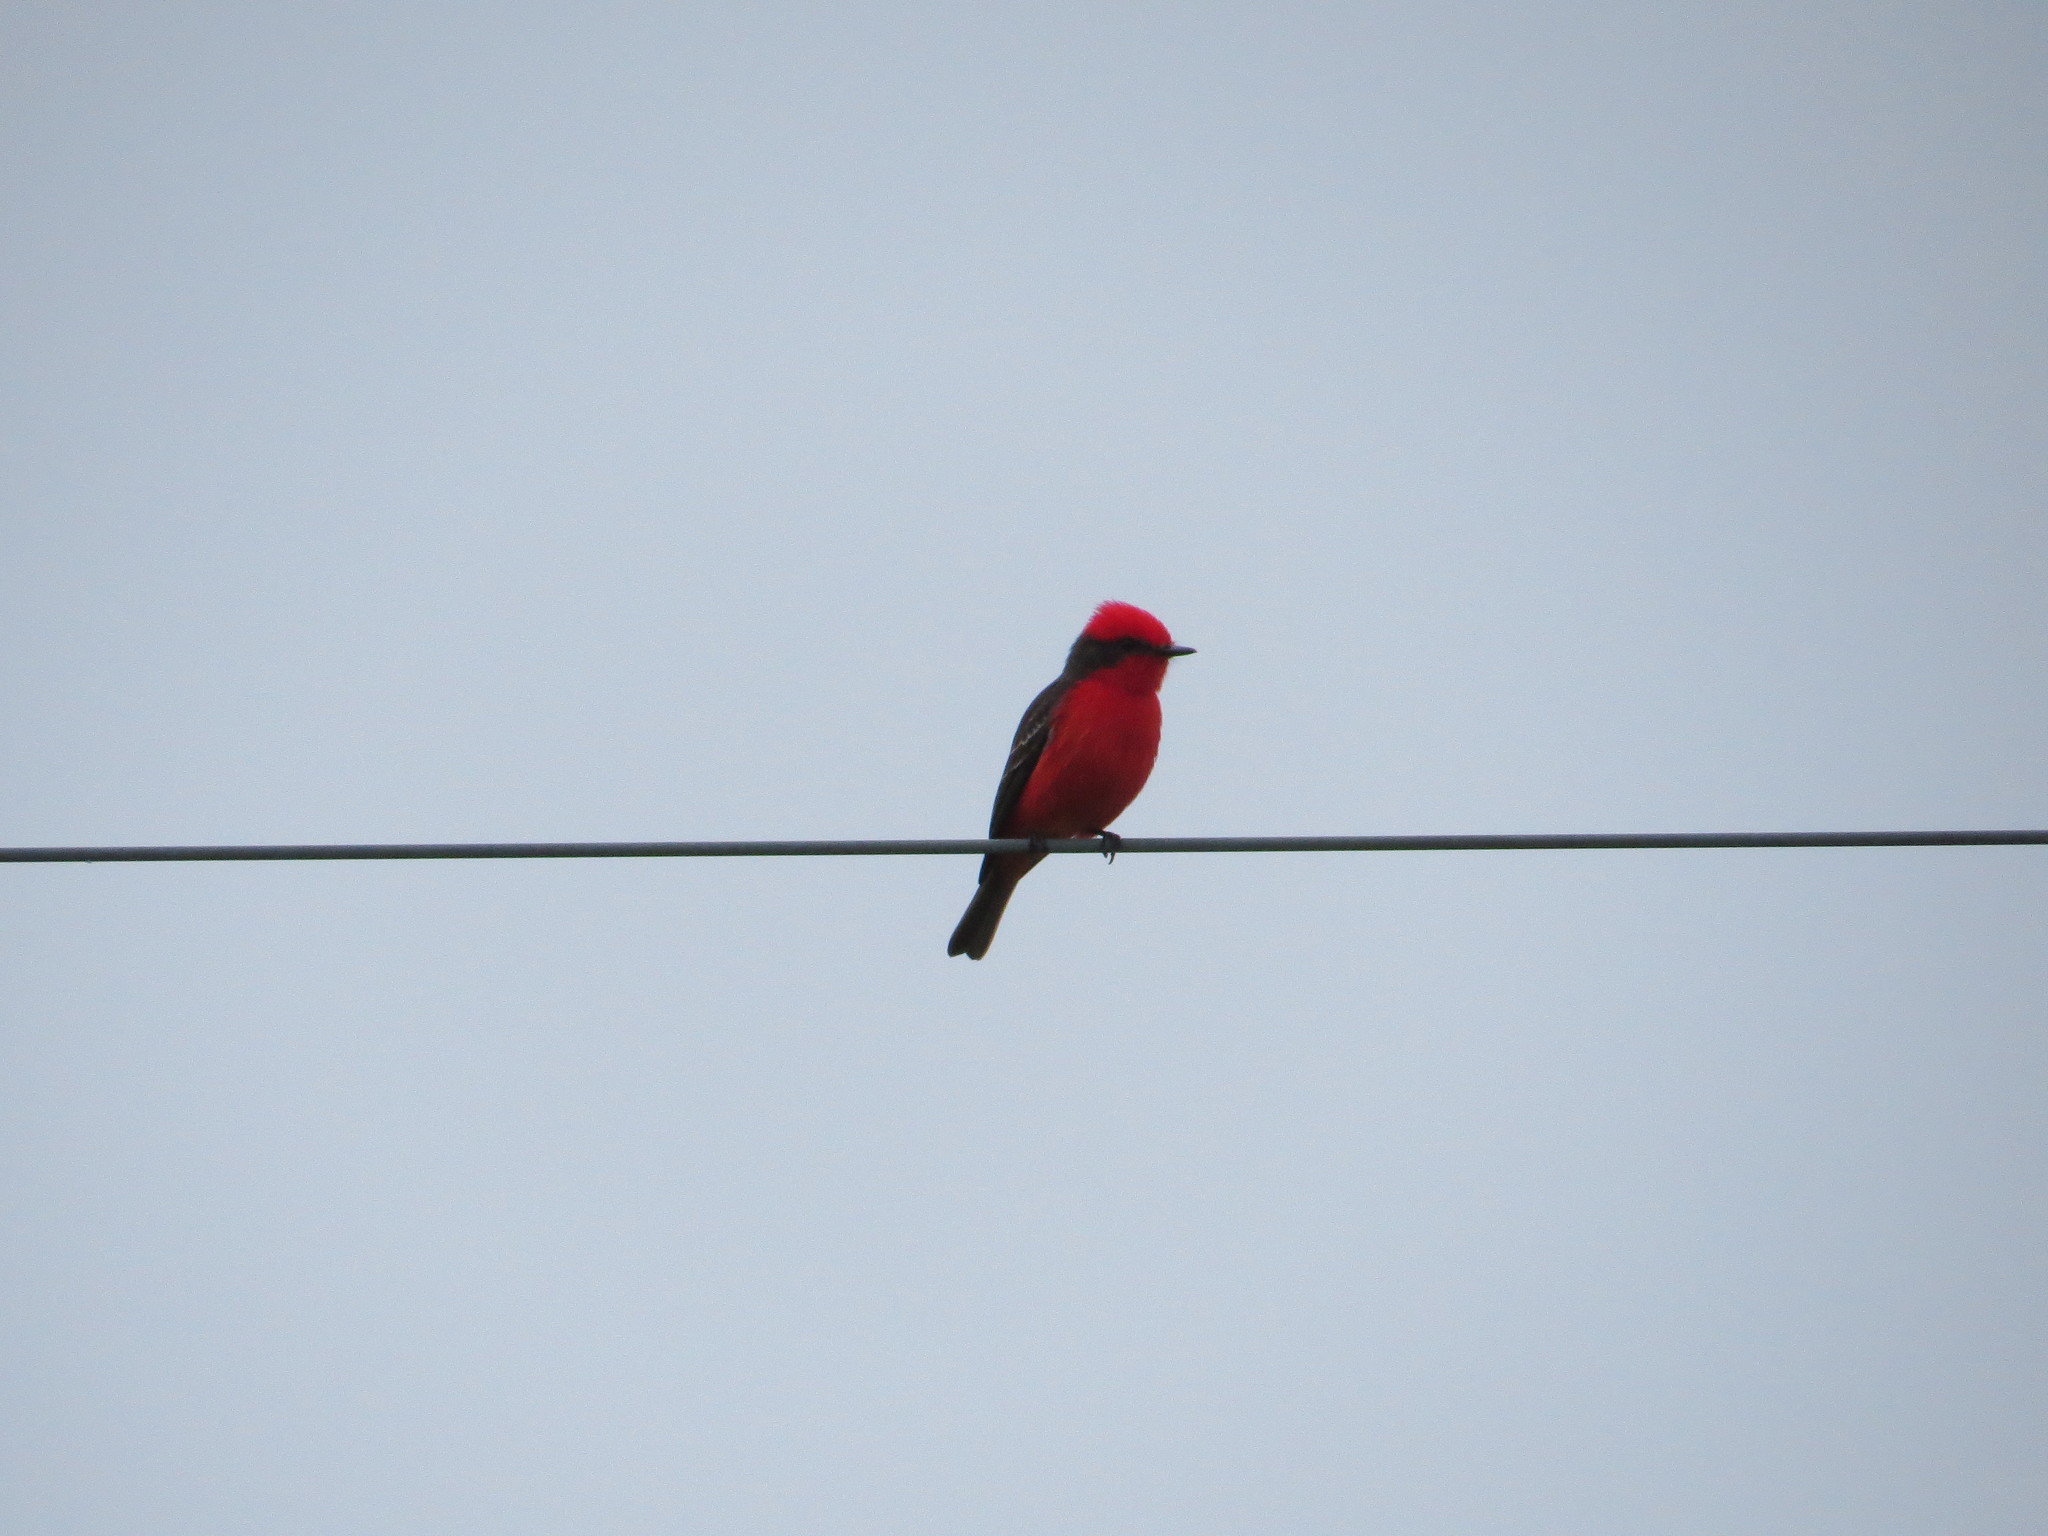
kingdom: Animalia
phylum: Chordata
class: Aves
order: Passeriformes
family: Tyrannidae
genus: Pyrocephalus
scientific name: Pyrocephalus rubinus
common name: Vermilion flycatcher
